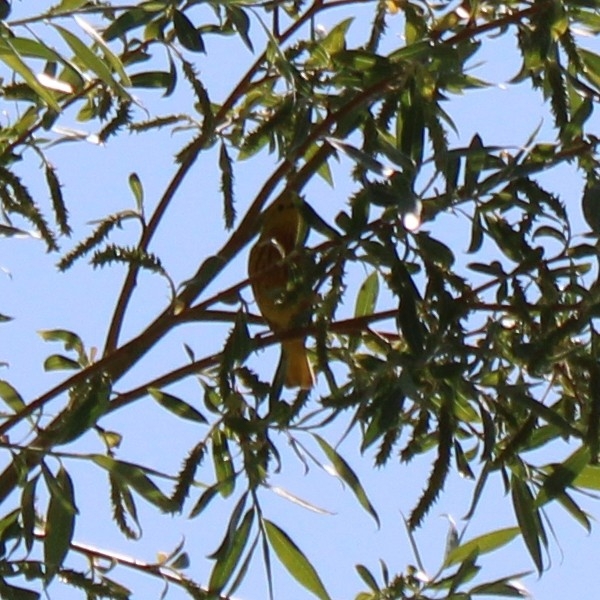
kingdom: Animalia
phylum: Chordata
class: Aves
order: Passeriformes
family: Parulidae
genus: Setophaga
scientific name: Setophaga petechia
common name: Yellow warbler
